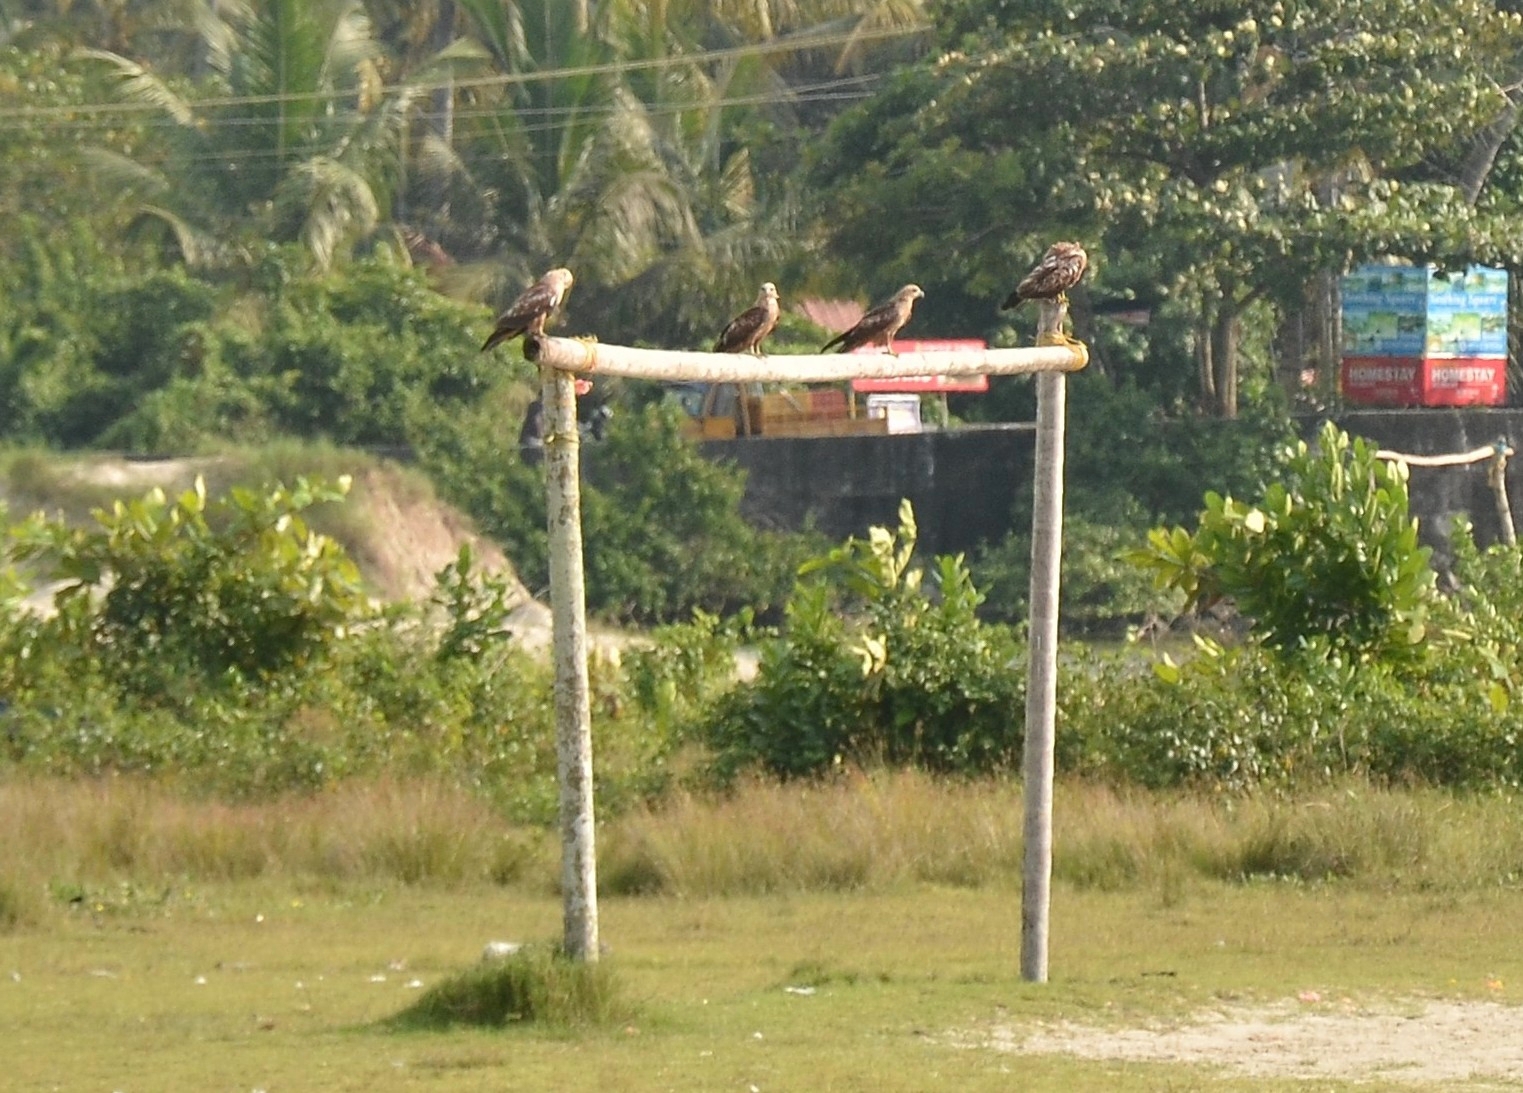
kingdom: Animalia
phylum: Chordata
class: Aves
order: Accipitriformes
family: Accipitridae
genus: Milvus
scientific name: Milvus migrans
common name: Black kite
